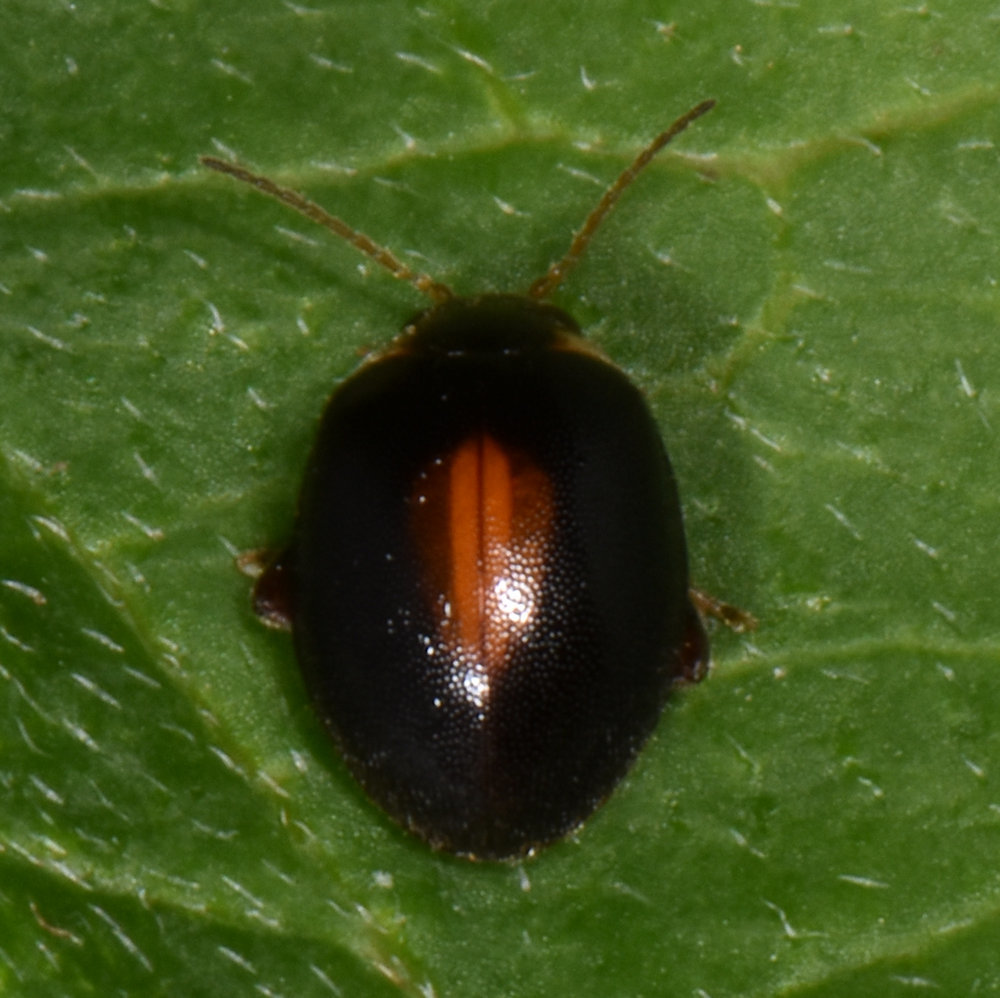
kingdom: Animalia
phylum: Arthropoda
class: Insecta
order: Coleoptera
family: Scirtidae
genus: Scirtes
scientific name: Scirtes orbiculatus
